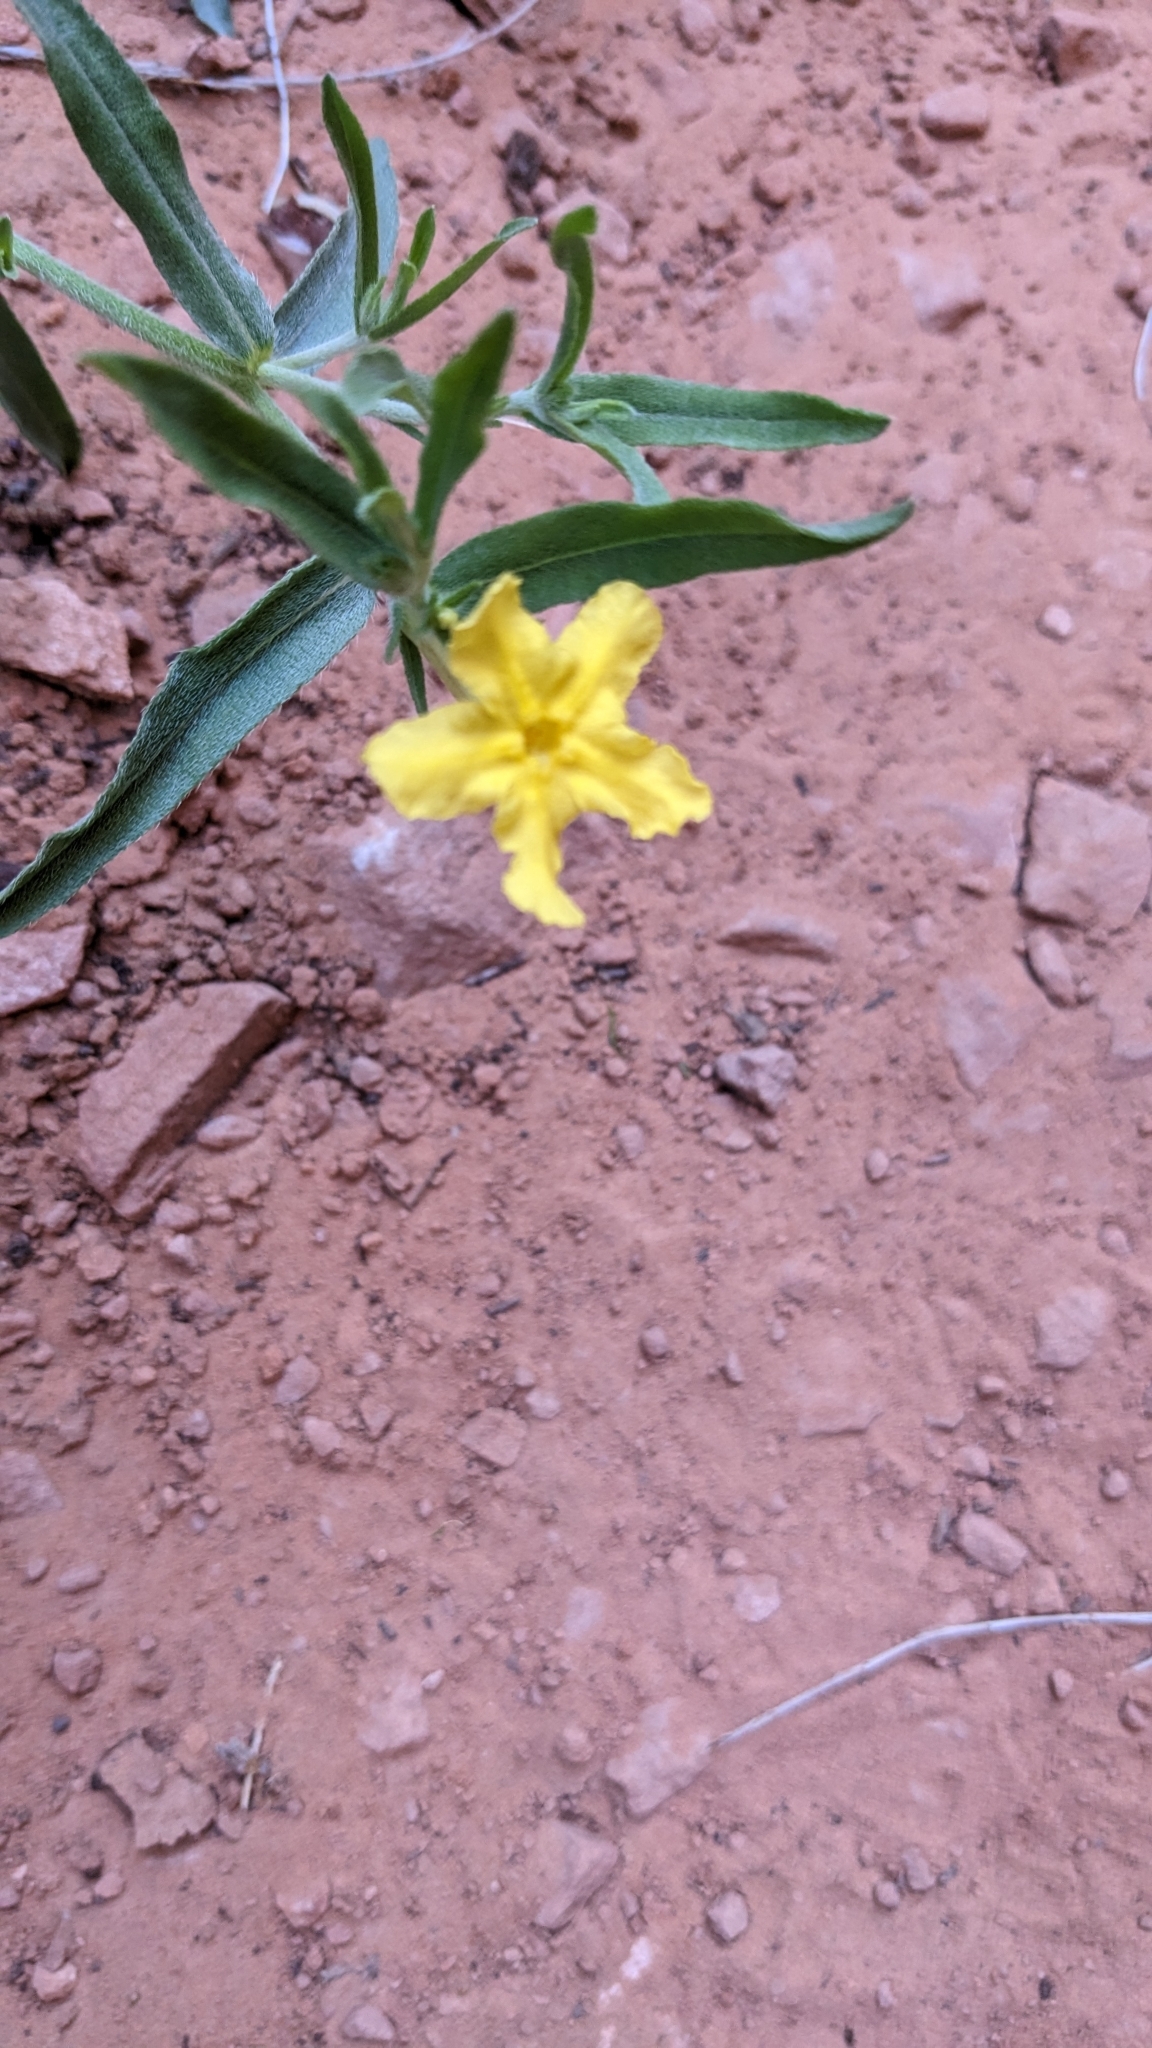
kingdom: Plantae
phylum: Tracheophyta
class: Magnoliopsida
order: Boraginales
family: Boraginaceae
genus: Lithospermum
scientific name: Lithospermum incisum
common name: Fringed gromwell
